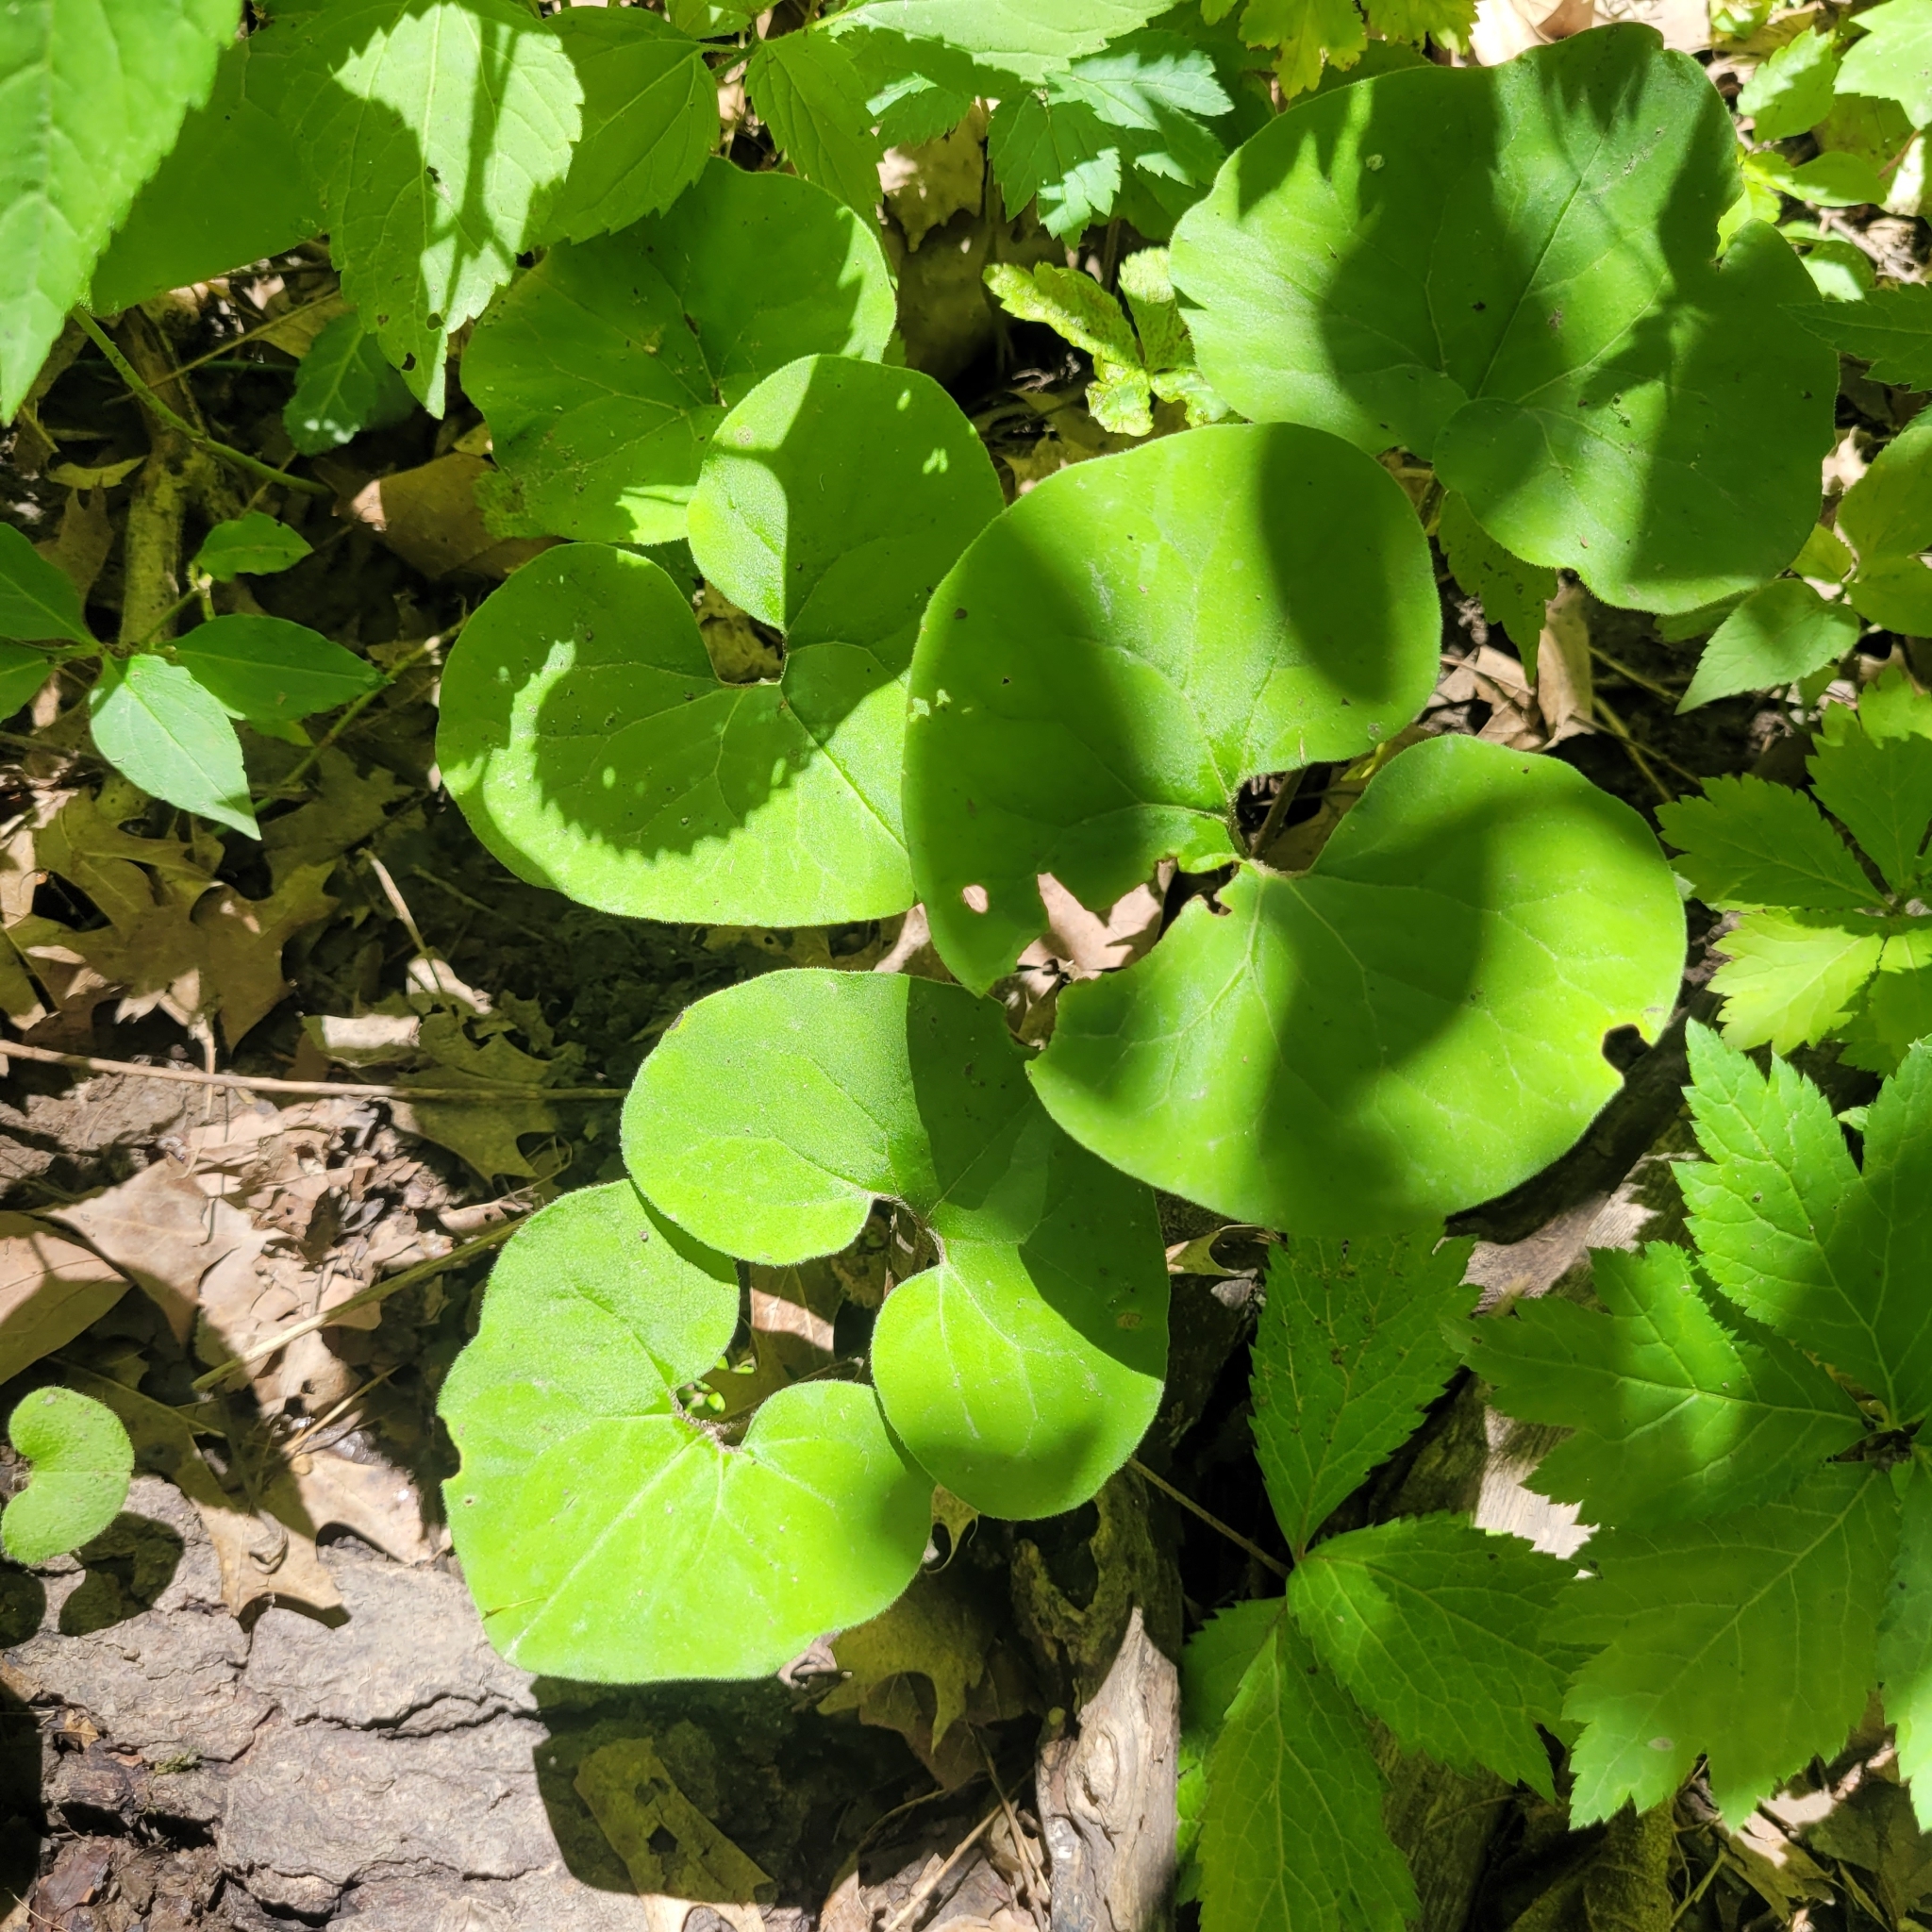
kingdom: Plantae
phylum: Tracheophyta
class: Magnoliopsida
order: Piperales
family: Aristolochiaceae
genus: Asarum
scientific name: Asarum canadense
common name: Wild ginger
